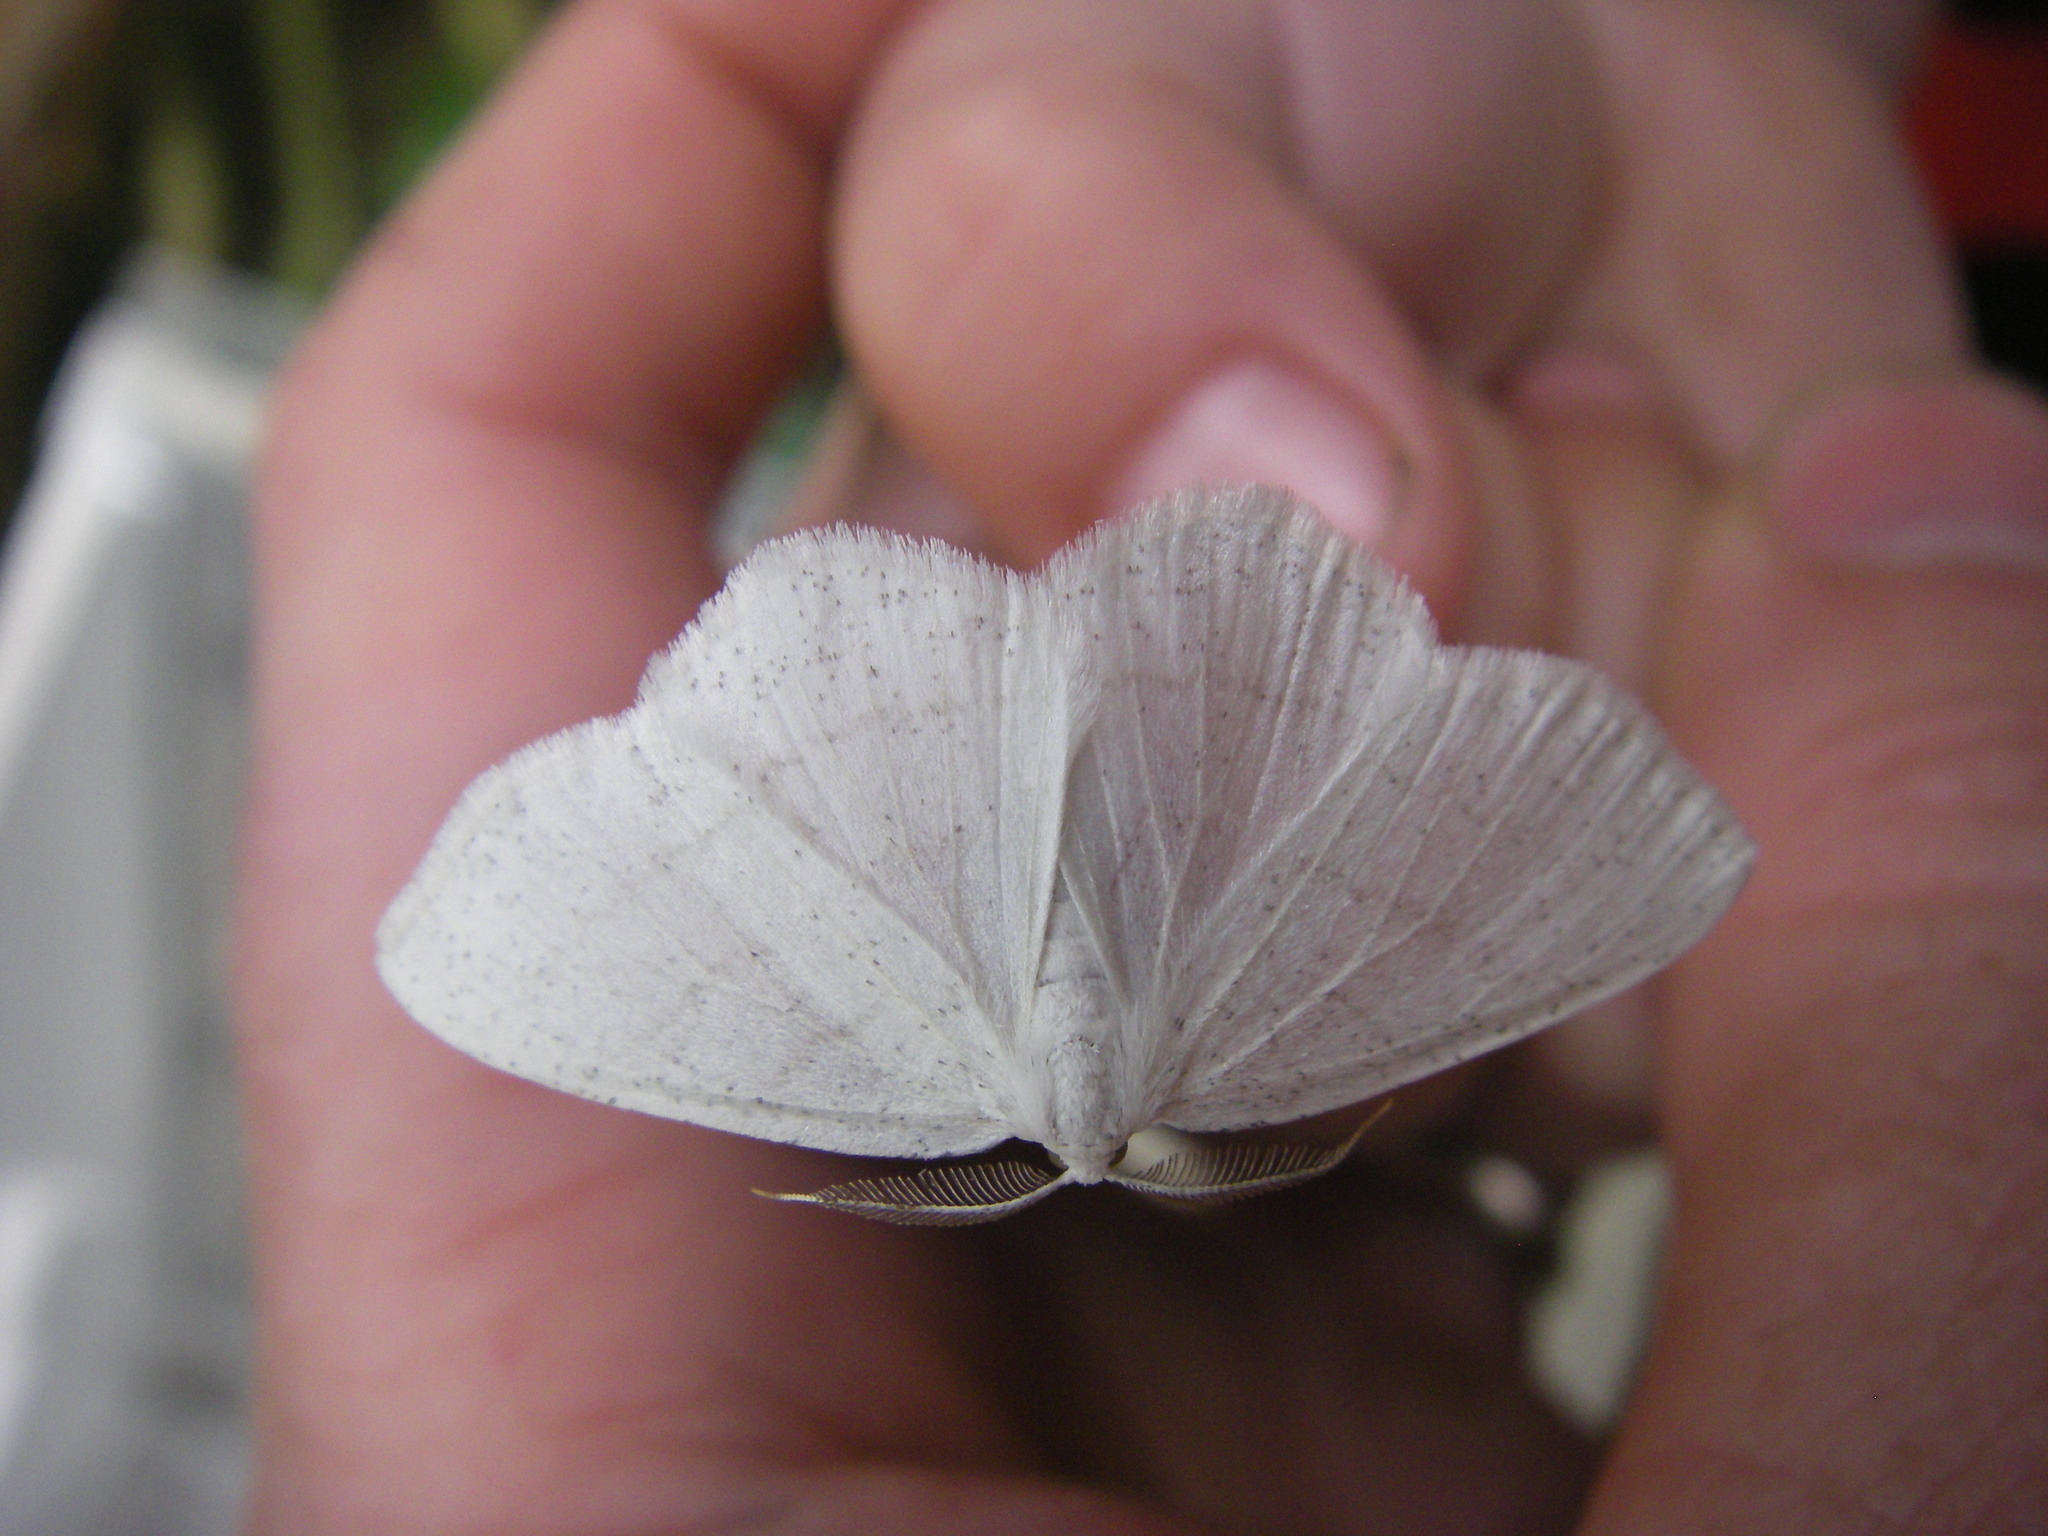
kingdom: Animalia
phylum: Arthropoda
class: Insecta
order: Lepidoptera
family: Geometridae
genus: Cabera
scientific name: Cabera pusaria
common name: Common white wave
